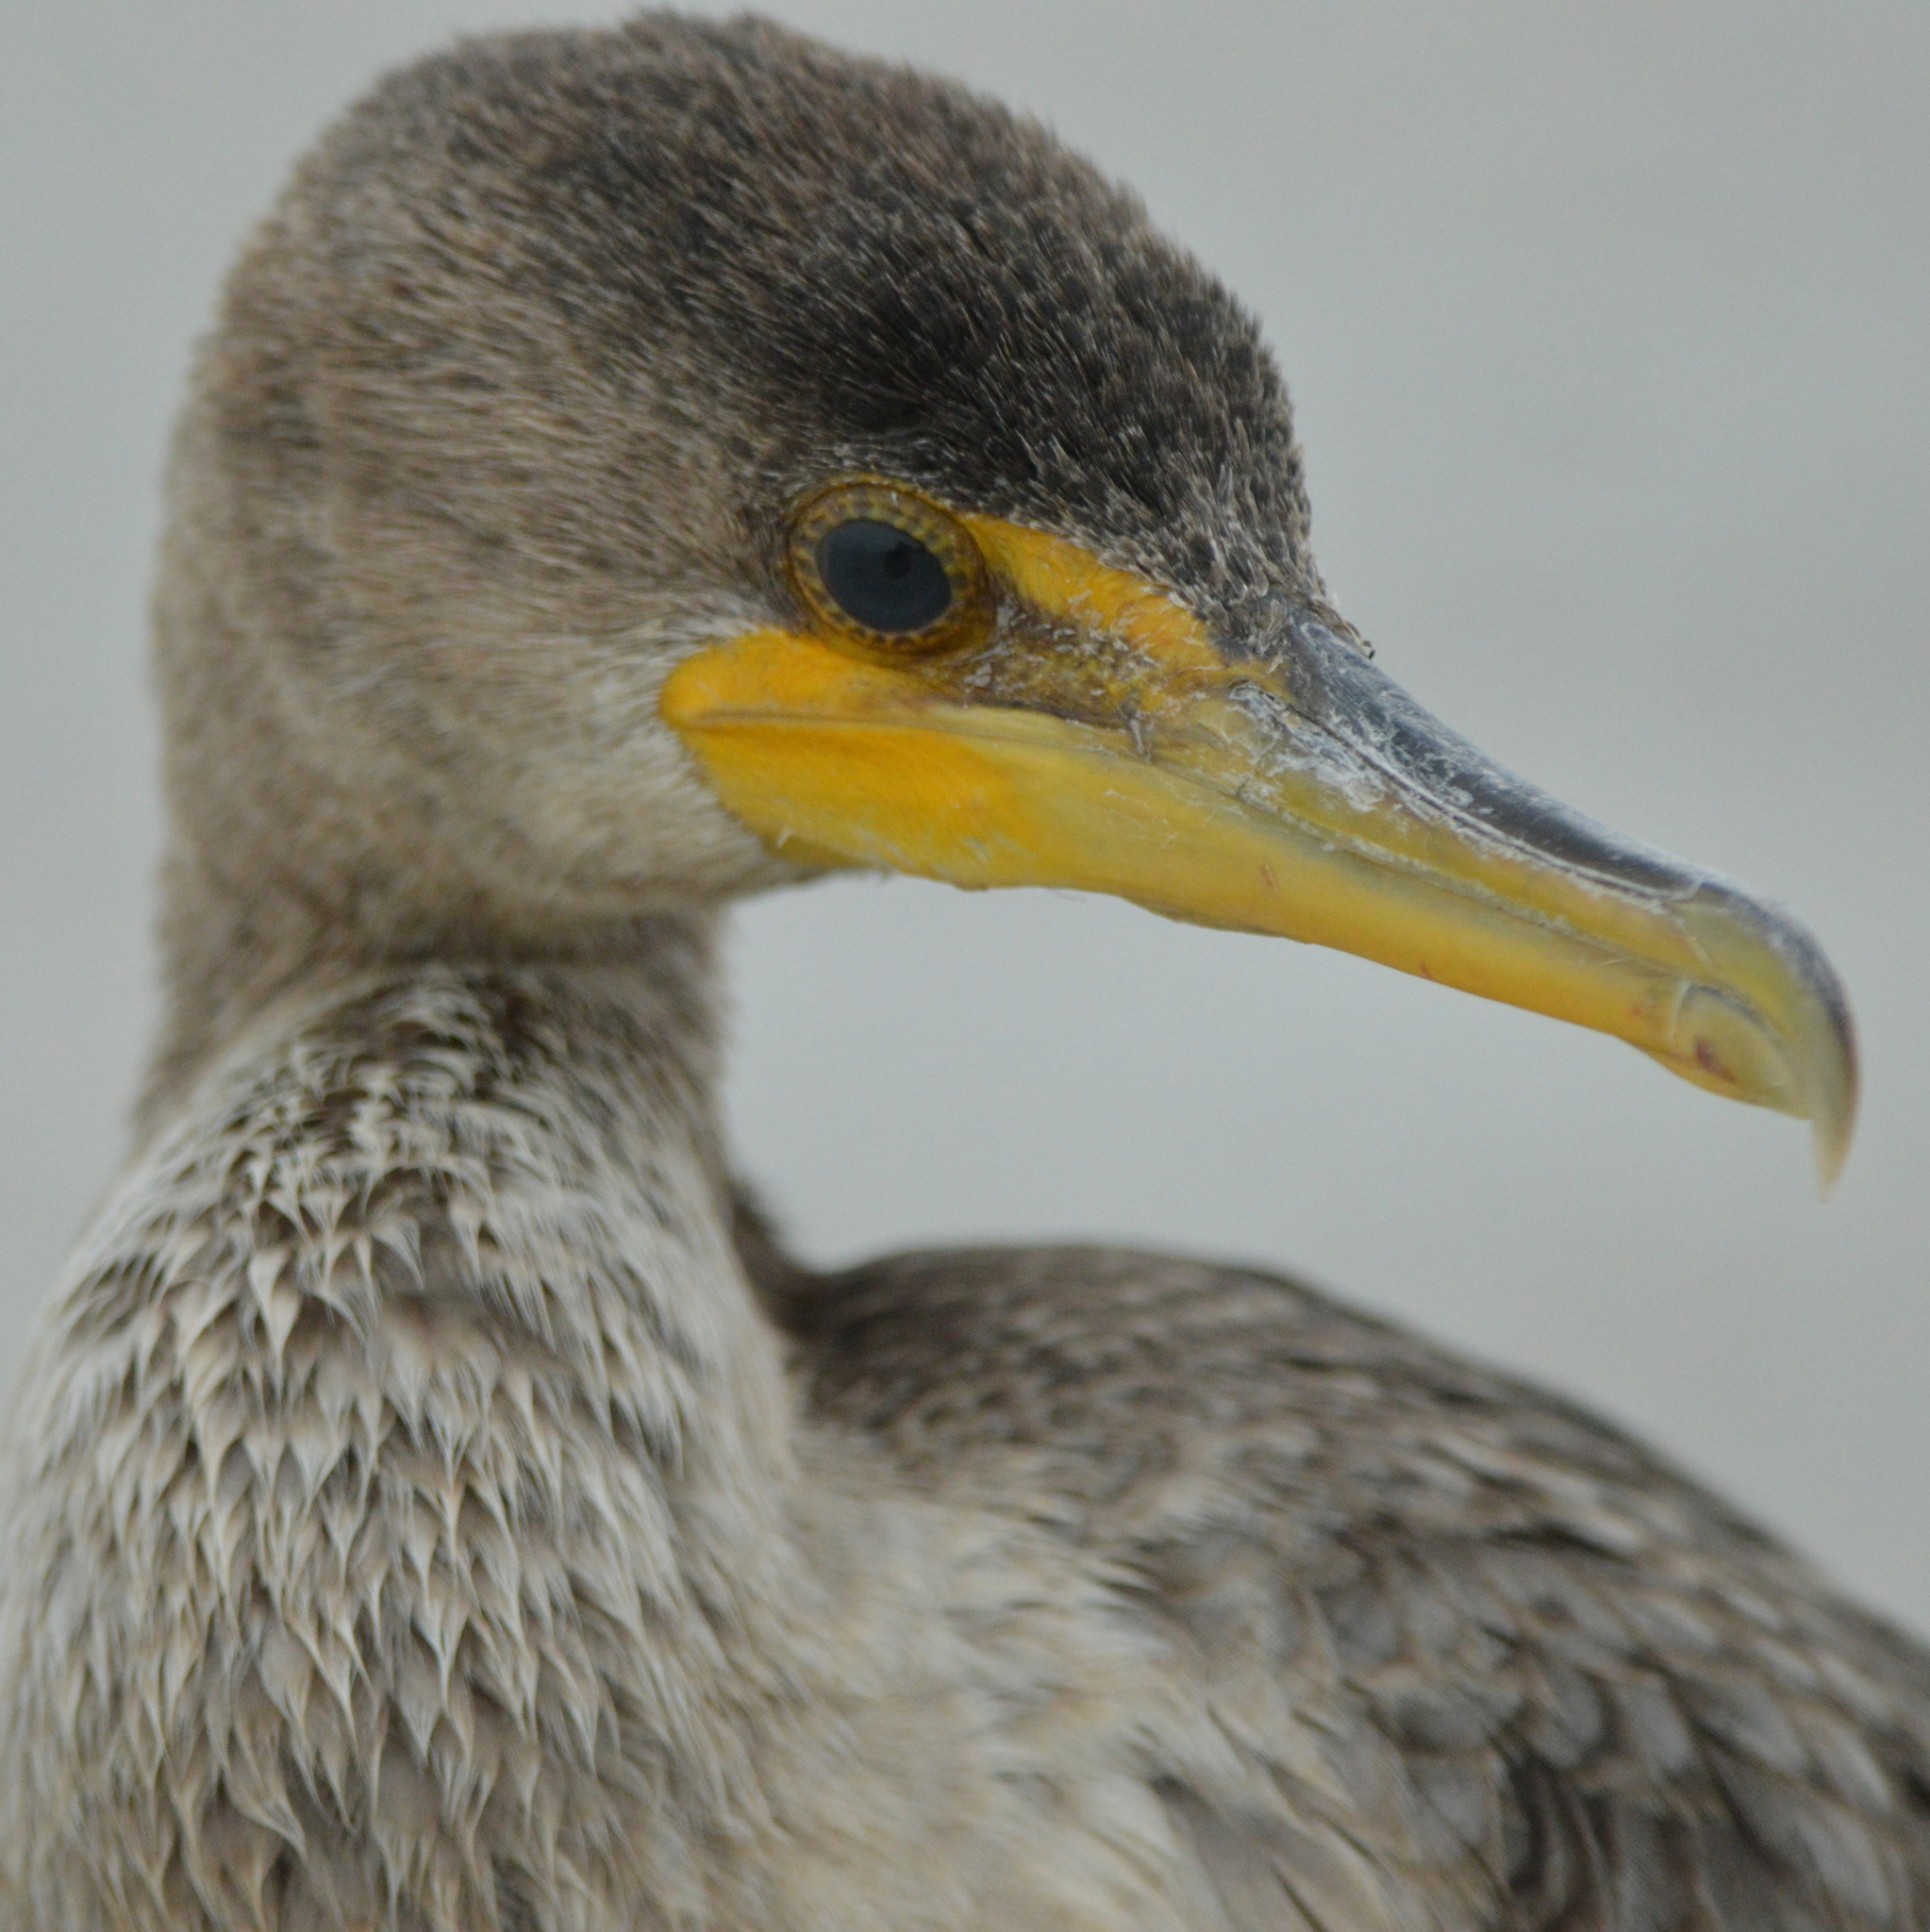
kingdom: Animalia
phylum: Chordata
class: Aves
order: Suliformes
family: Phalacrocoracidae
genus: Phalacrocorax
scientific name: Phalacrocorax auritus
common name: Double-crested cormorant
